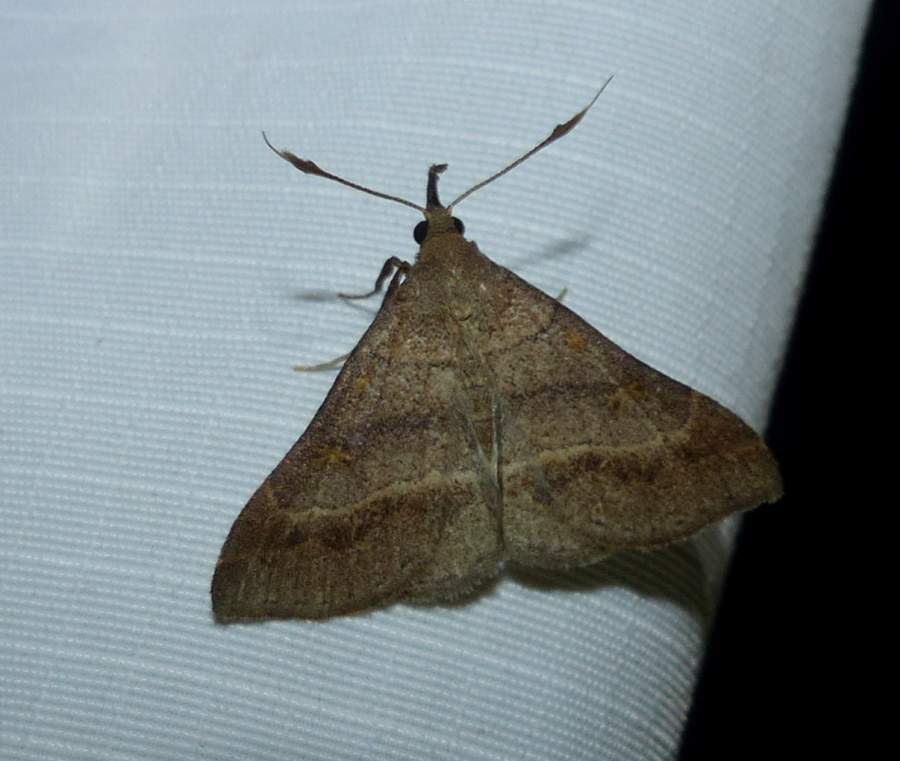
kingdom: Animalia
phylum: Arthropoda
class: Insecta
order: Lepidoptera
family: Erebidae
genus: Renia
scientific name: Renia flavipunctalis
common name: Yellow-spotted renia moth
